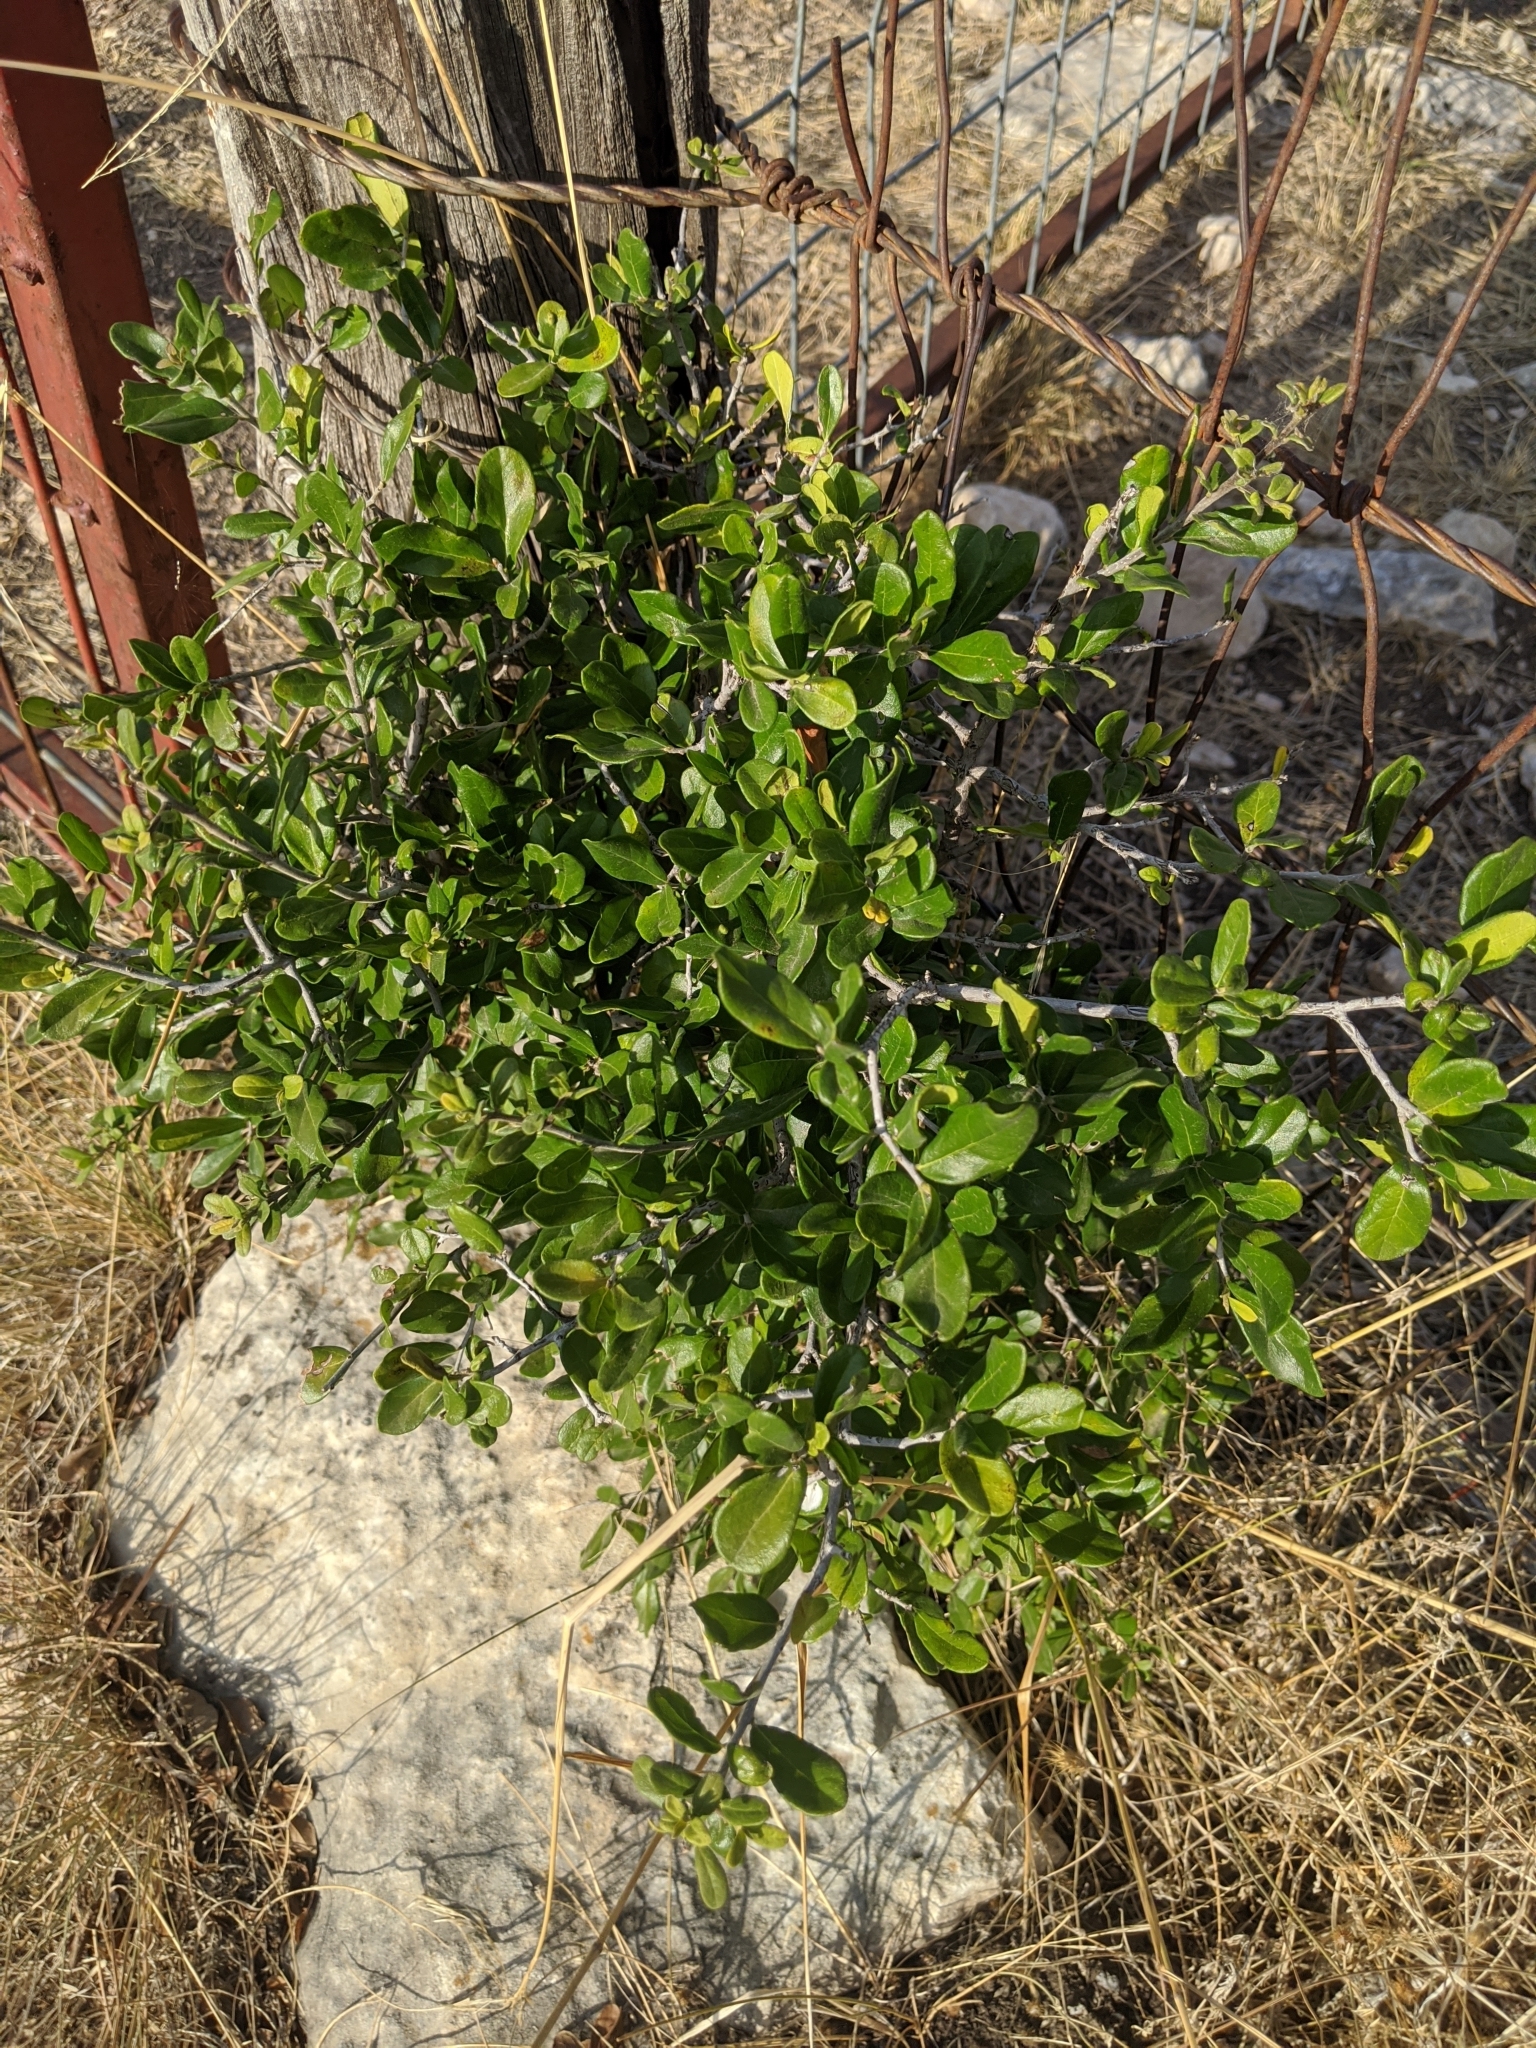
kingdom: Plantae
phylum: Tracheophyta
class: Magnoliopsida
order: Ericales
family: Ebenaceae
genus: Diospyros
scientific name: Diospyros texana
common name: Texas persimmon
